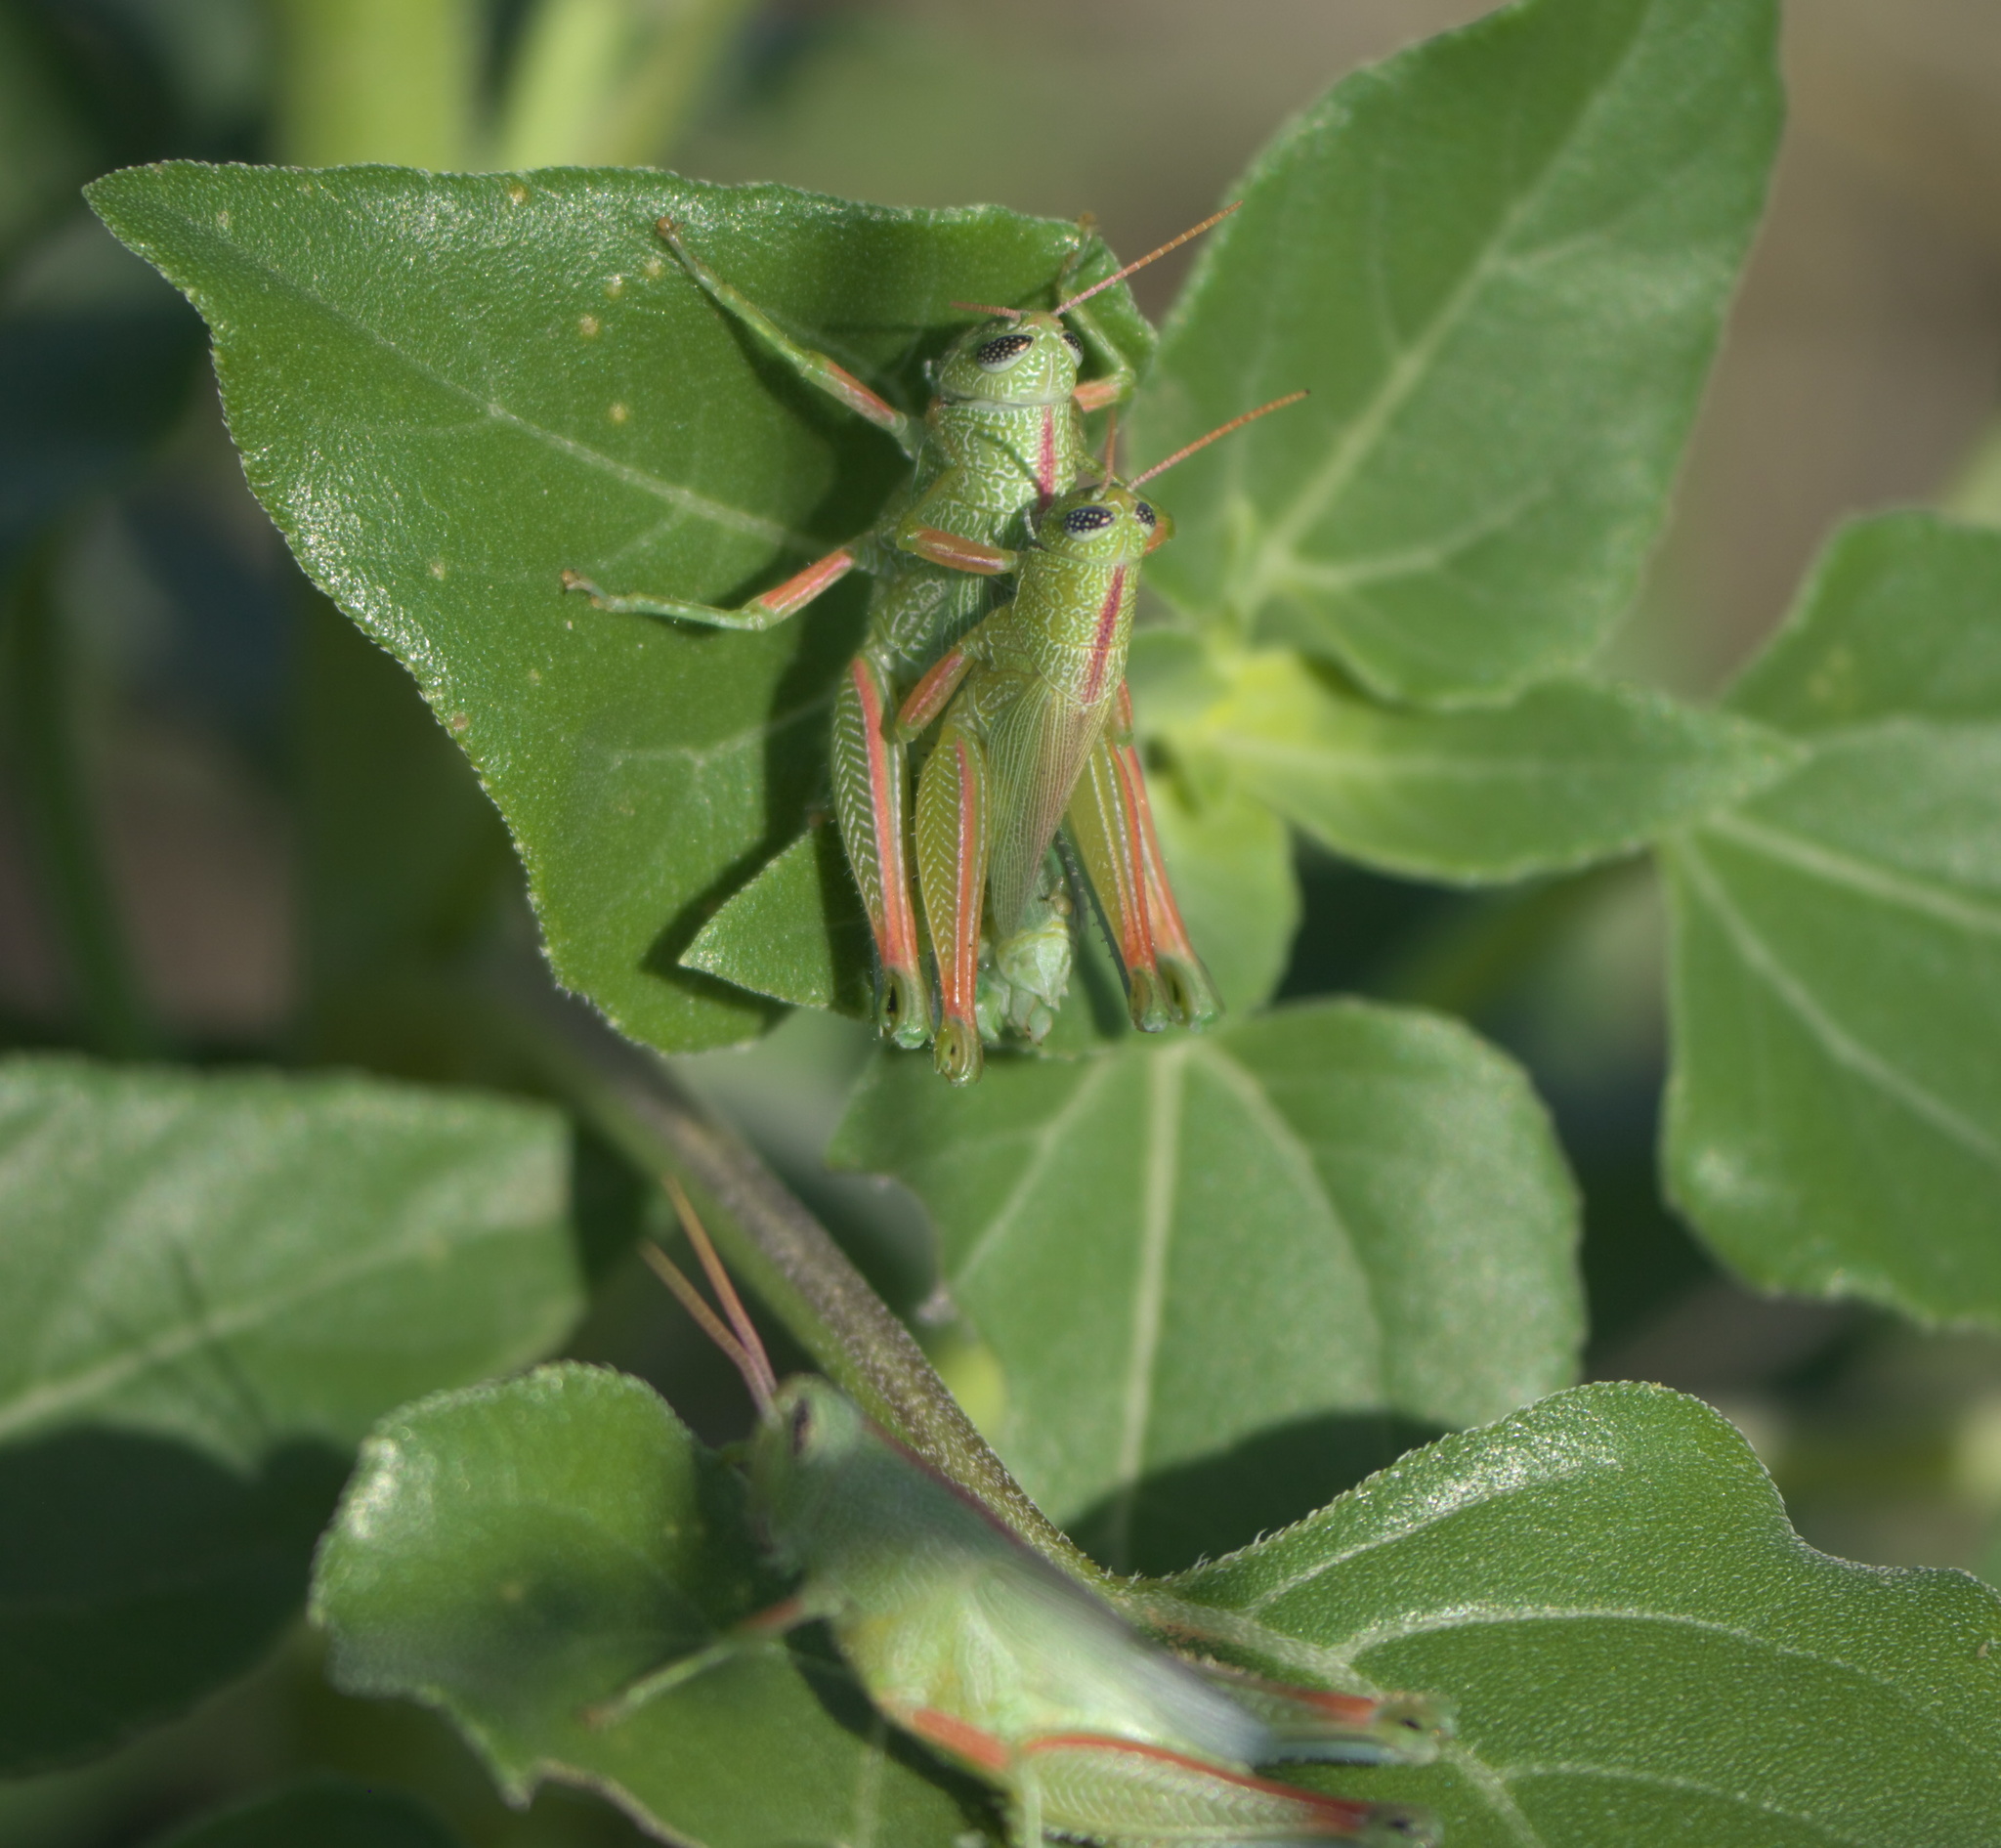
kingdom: Animalia
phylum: Arthropoda
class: Insecta
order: Orthoptera
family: Acrididae
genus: Hesperotettix
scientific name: Hesperotettix speciosus
